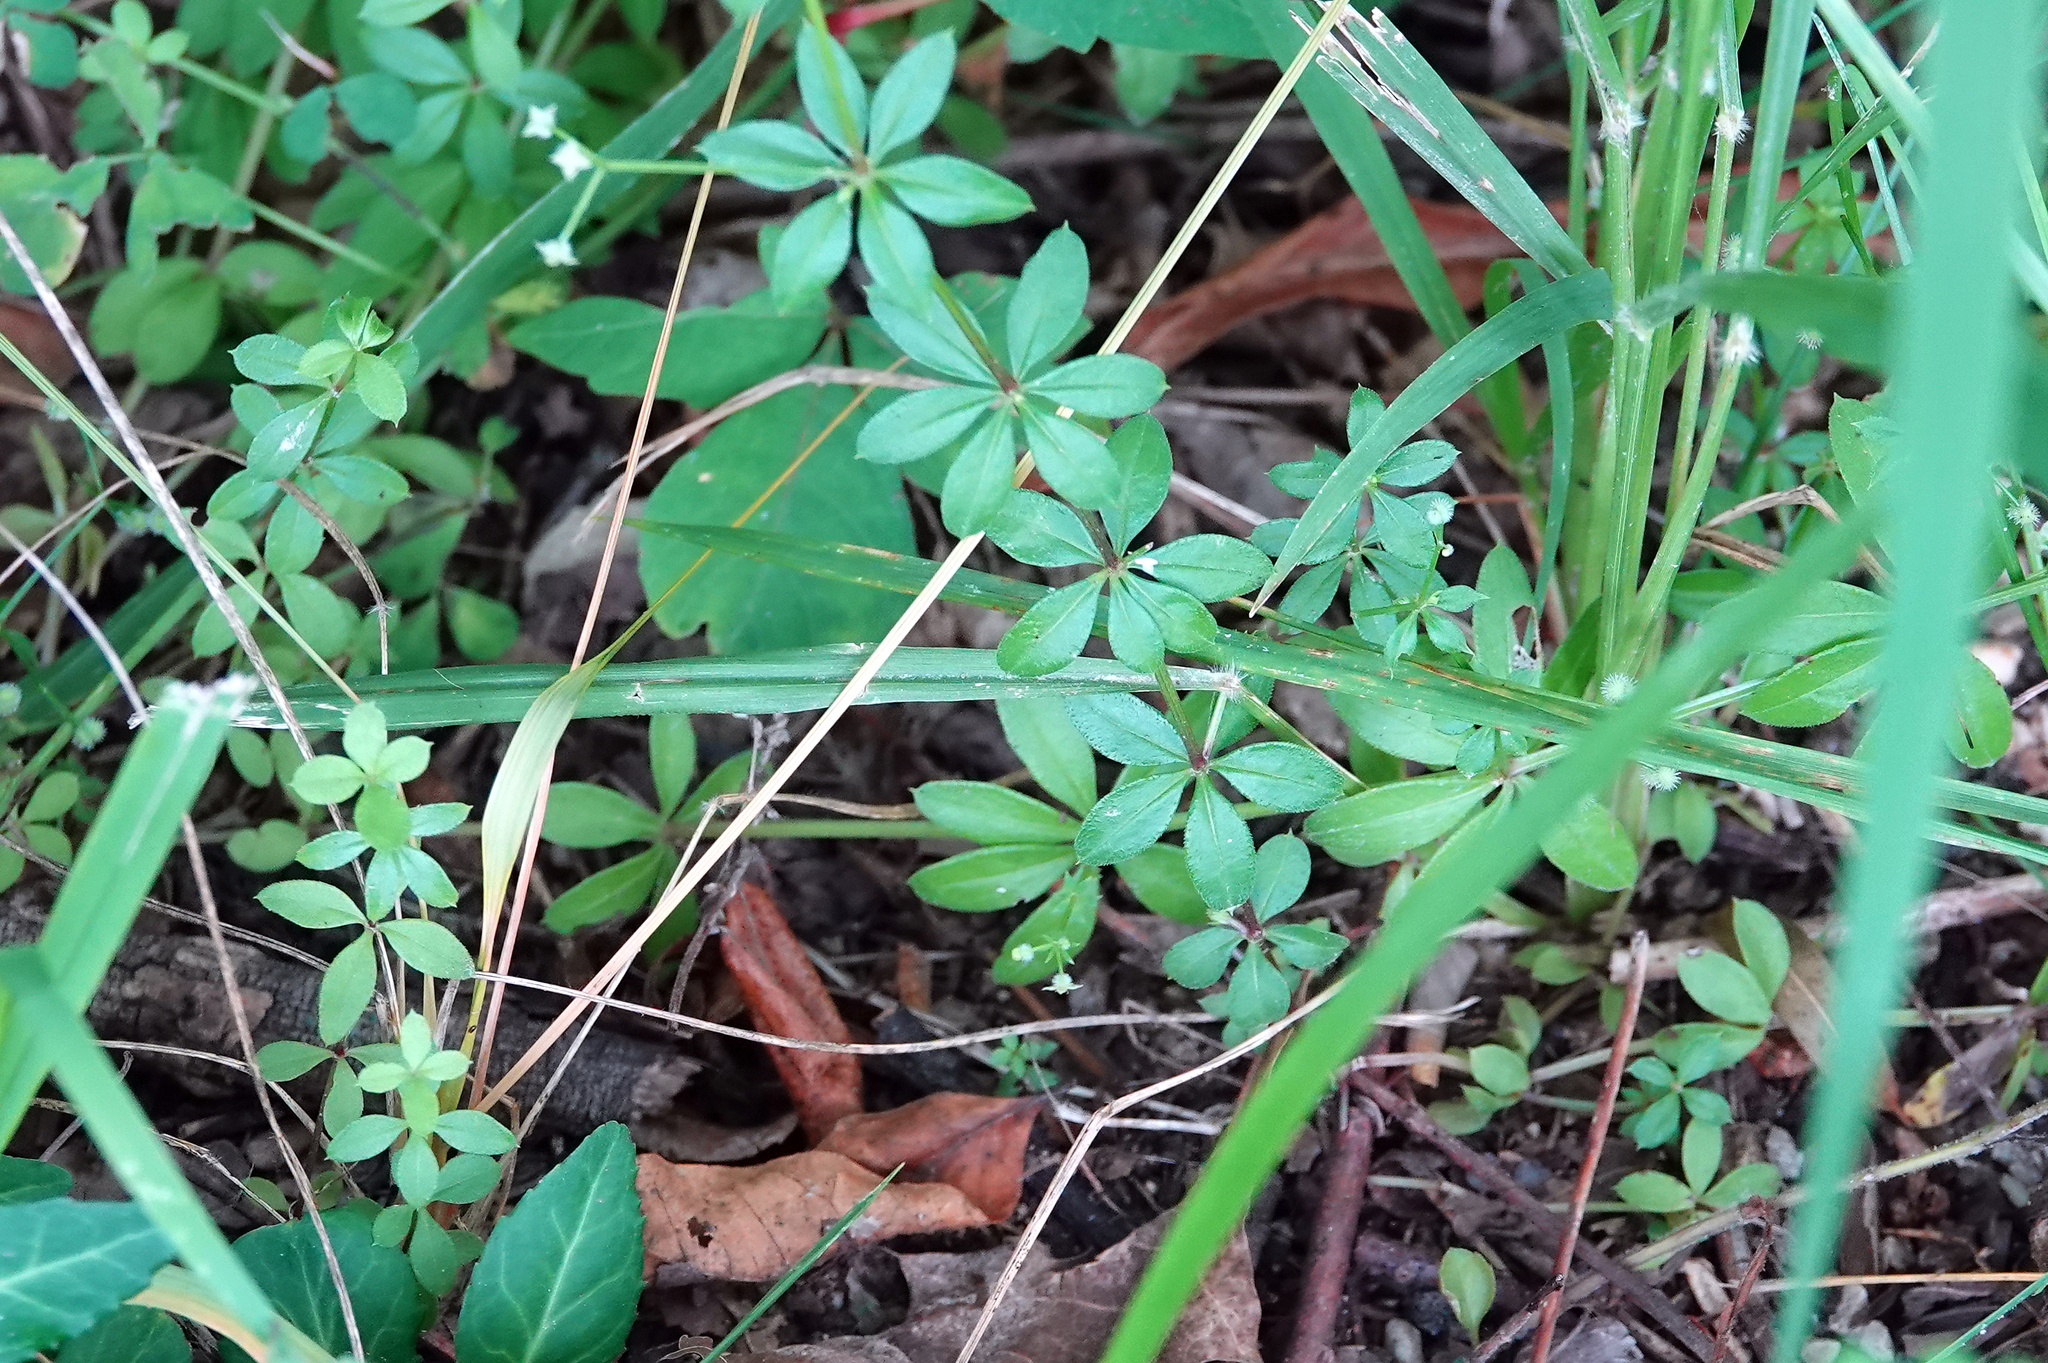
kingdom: Plantae
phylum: Tracheophyta
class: Magnoliopsida
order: Gentianales
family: Rubiaceae
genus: Galium
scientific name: Galium triflorum
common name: Fragrant bedstraw
